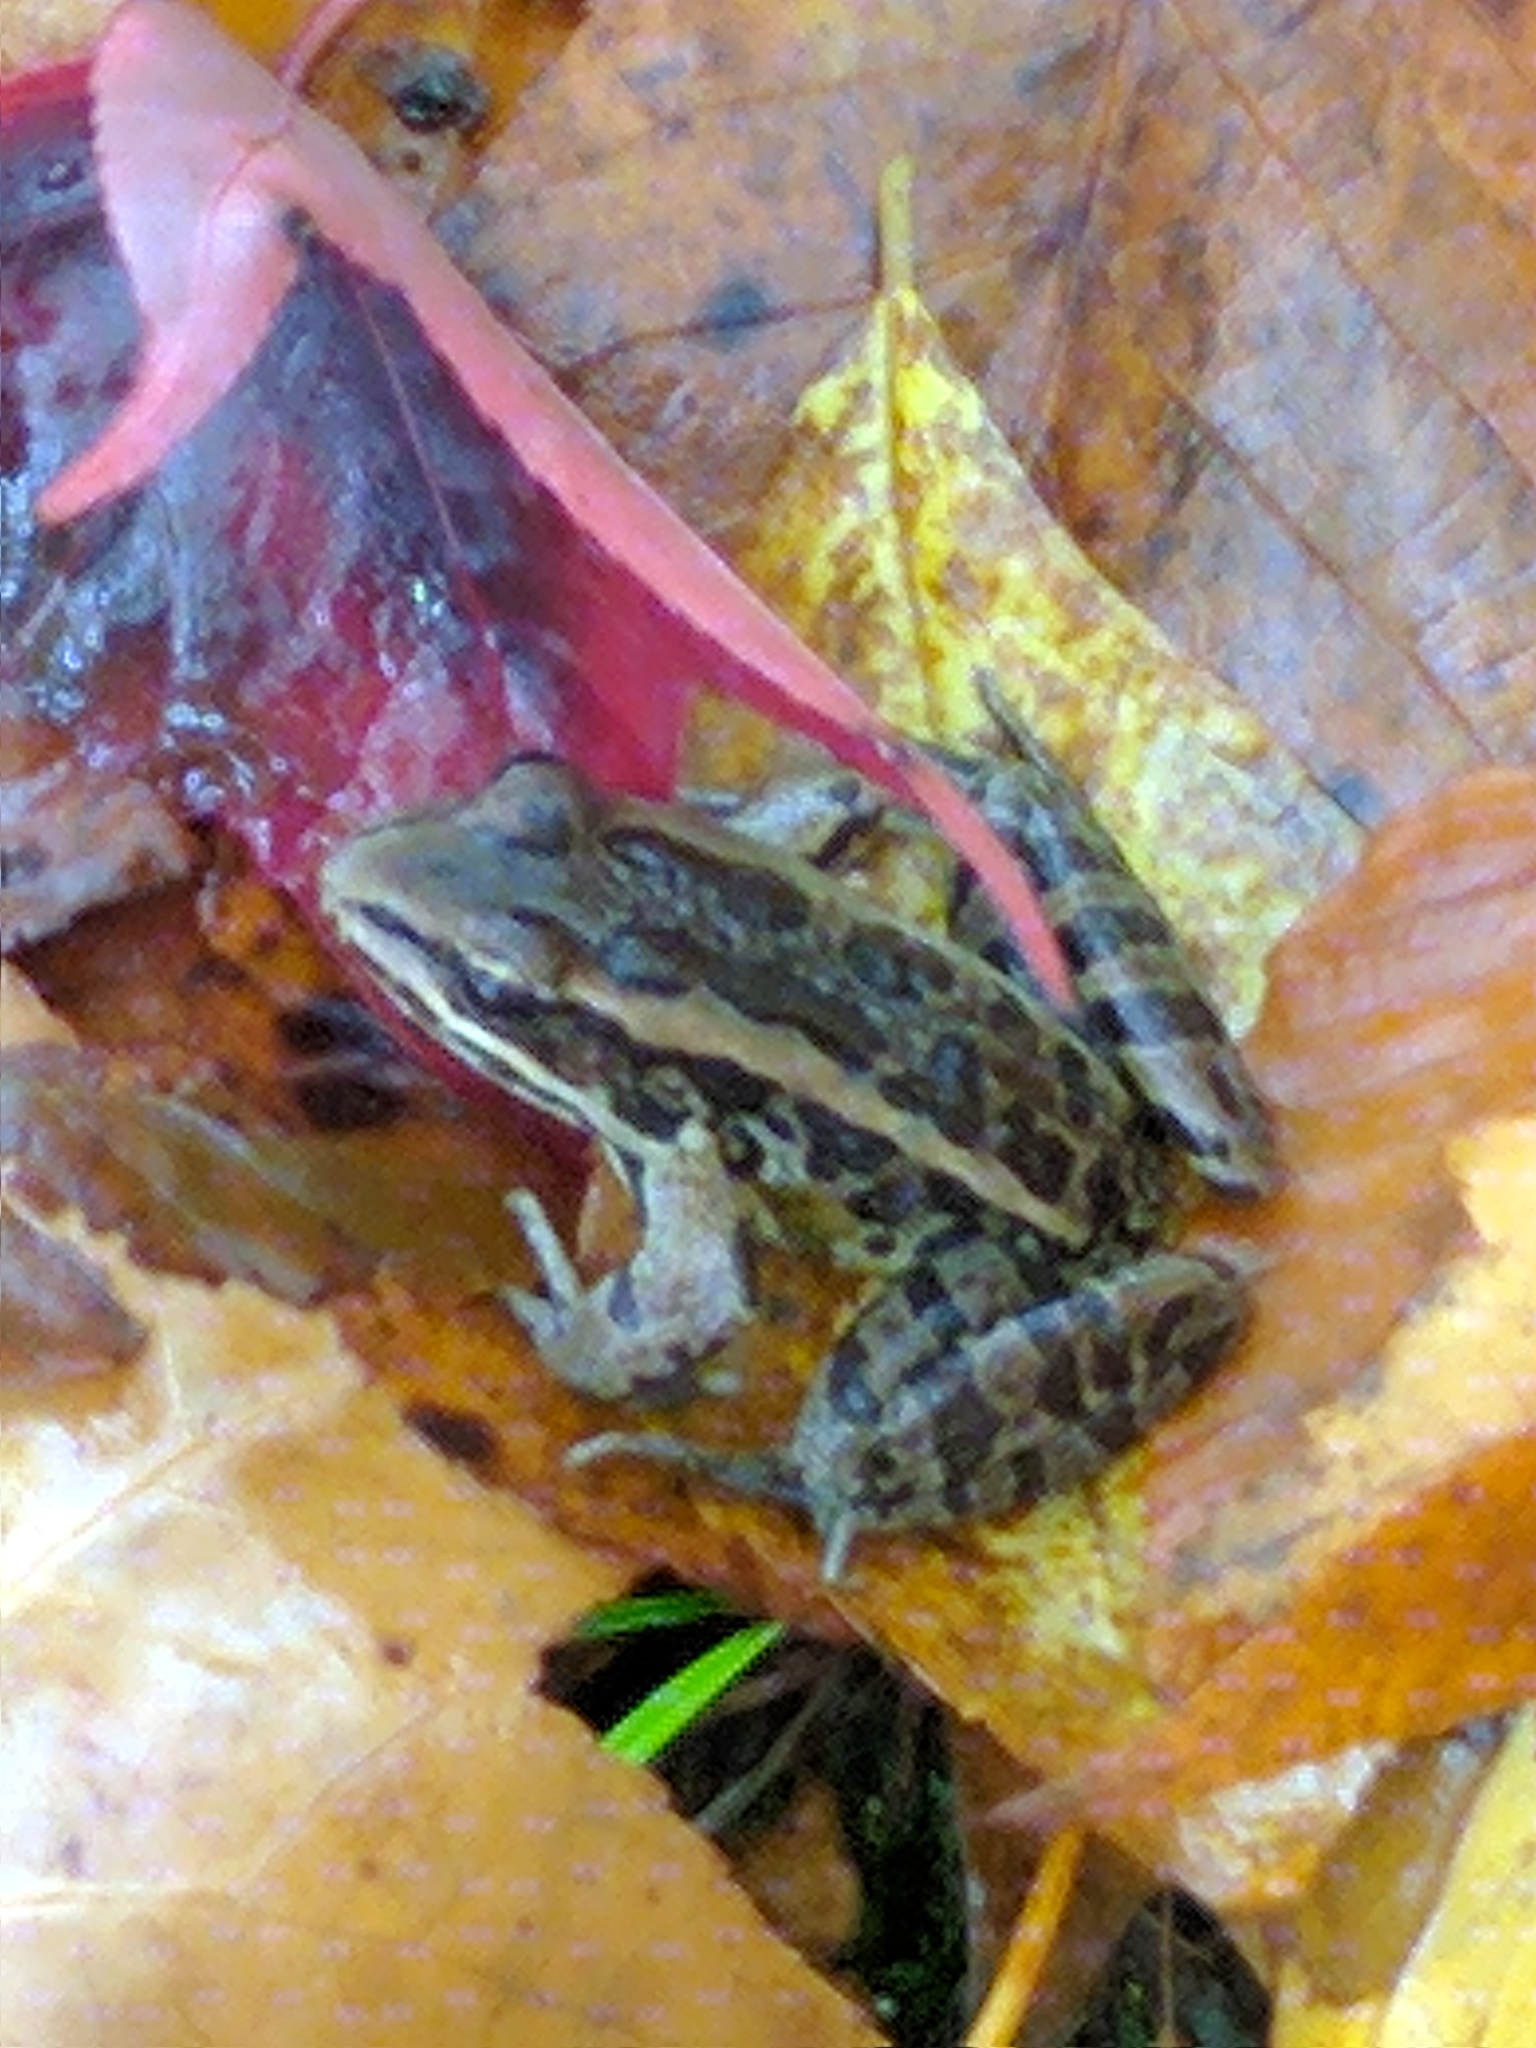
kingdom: Animalia
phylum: Chordata
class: Amphibia
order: Anura
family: Ranidae
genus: Lithobates
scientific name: Lithobates palustris
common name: Pickerel frog
